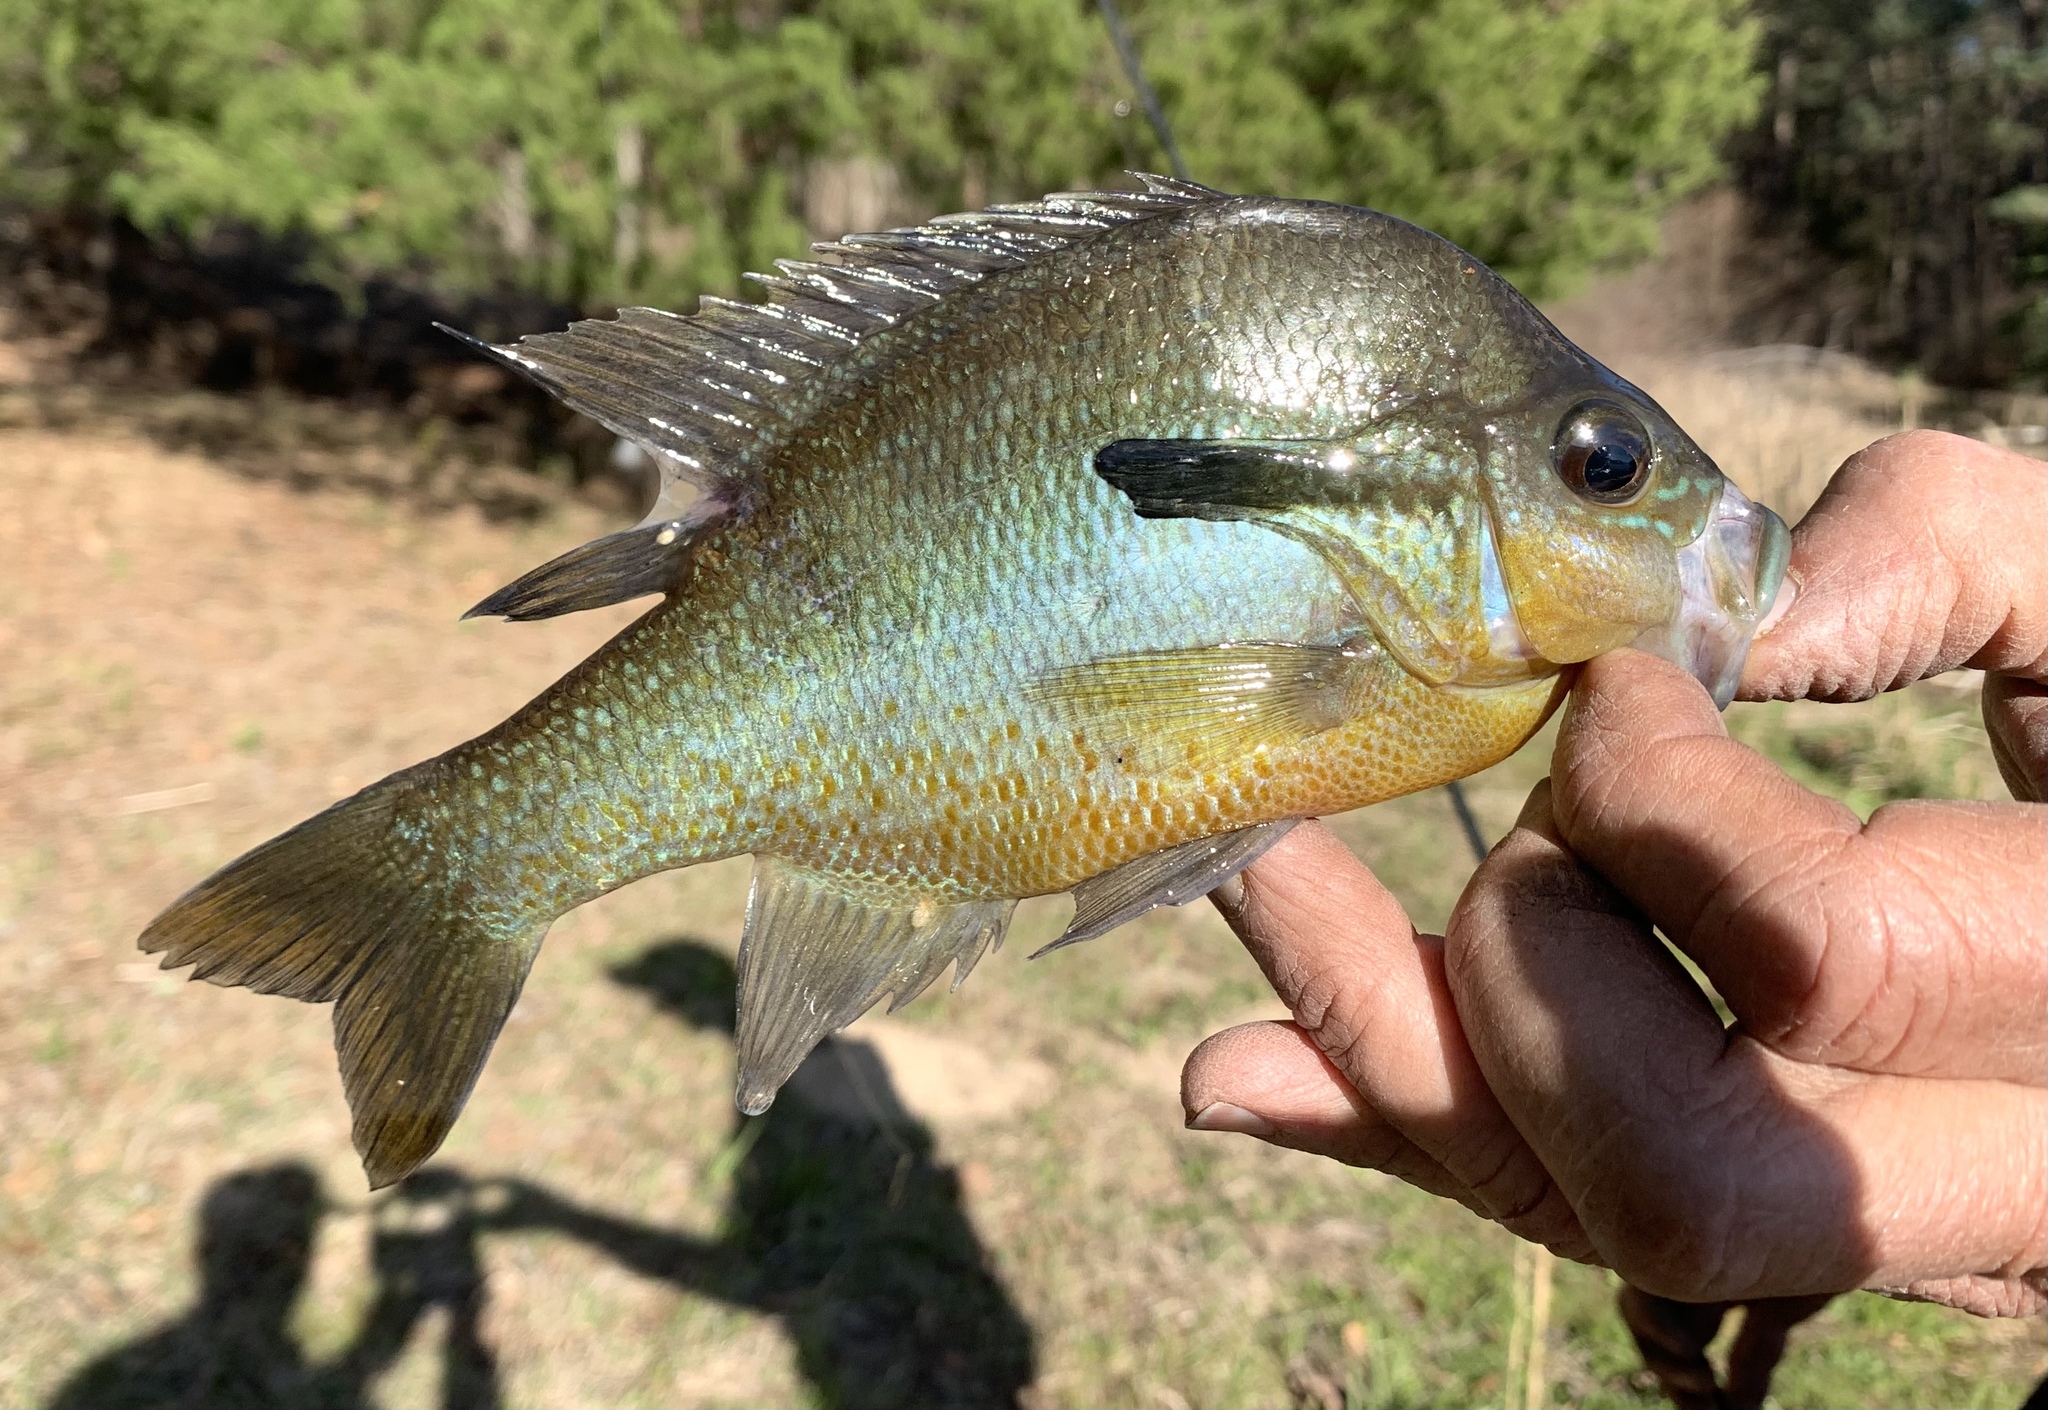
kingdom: Animalia
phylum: Chordata
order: Perciformes
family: Centrarchidae
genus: Lepomis
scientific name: Lepomis auritus
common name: Redbreast sunfish
